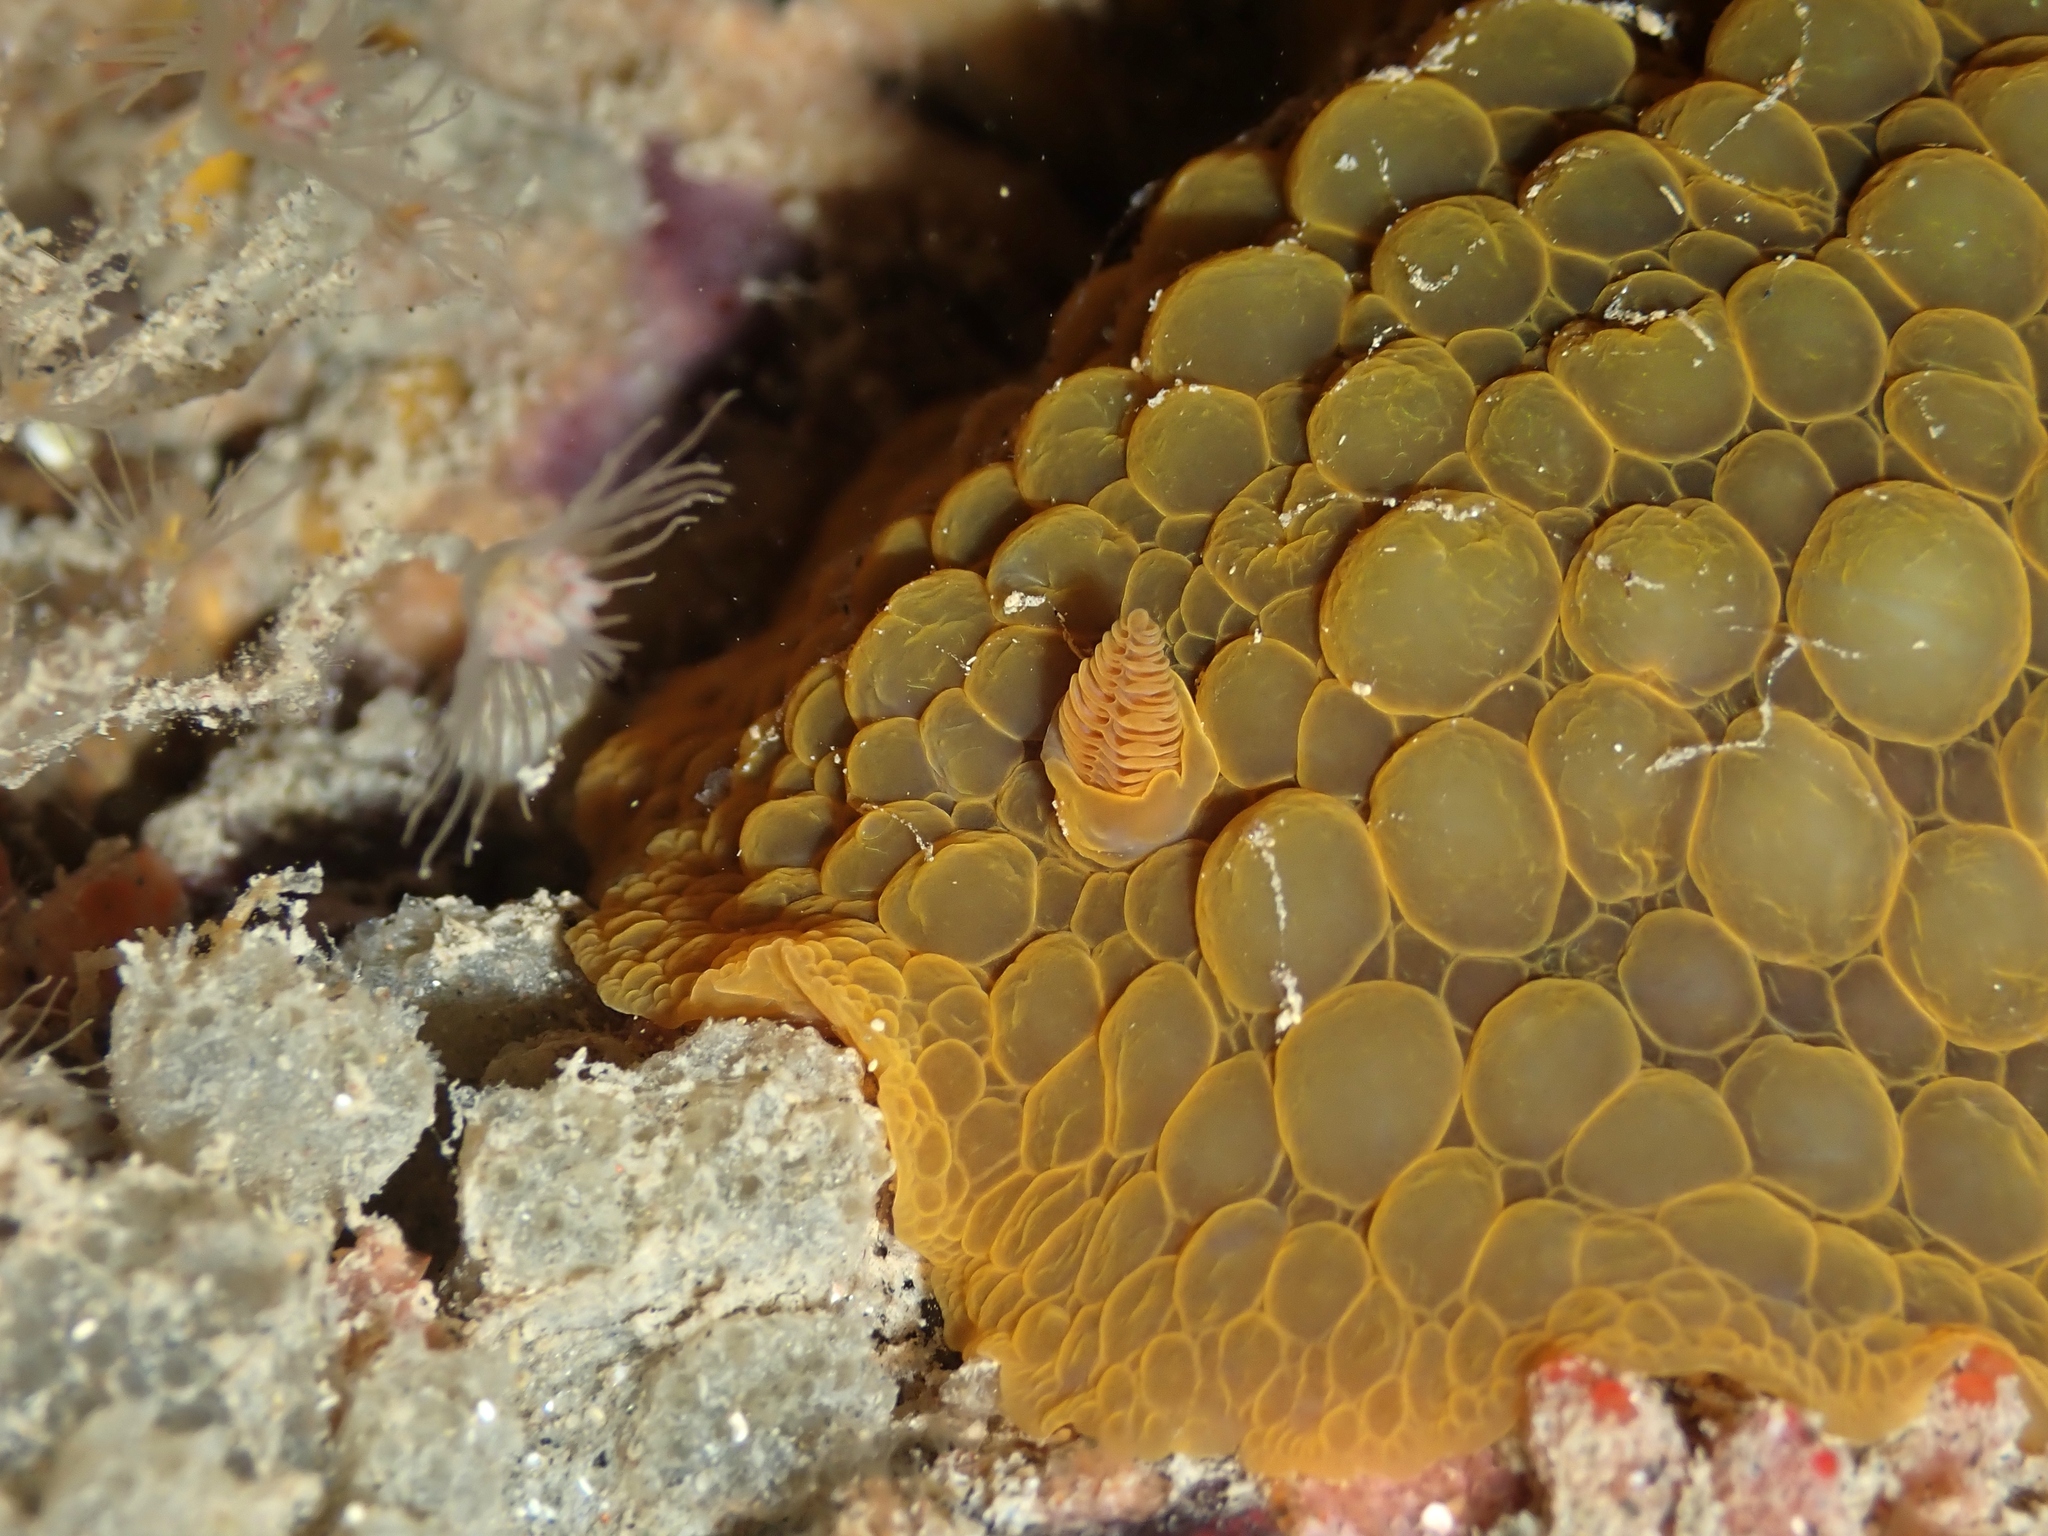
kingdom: Animalia
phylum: Mollusca
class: Gastropoda
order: Nudibranchia
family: Dorididae
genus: Doris
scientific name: Doris wellingtonensis
